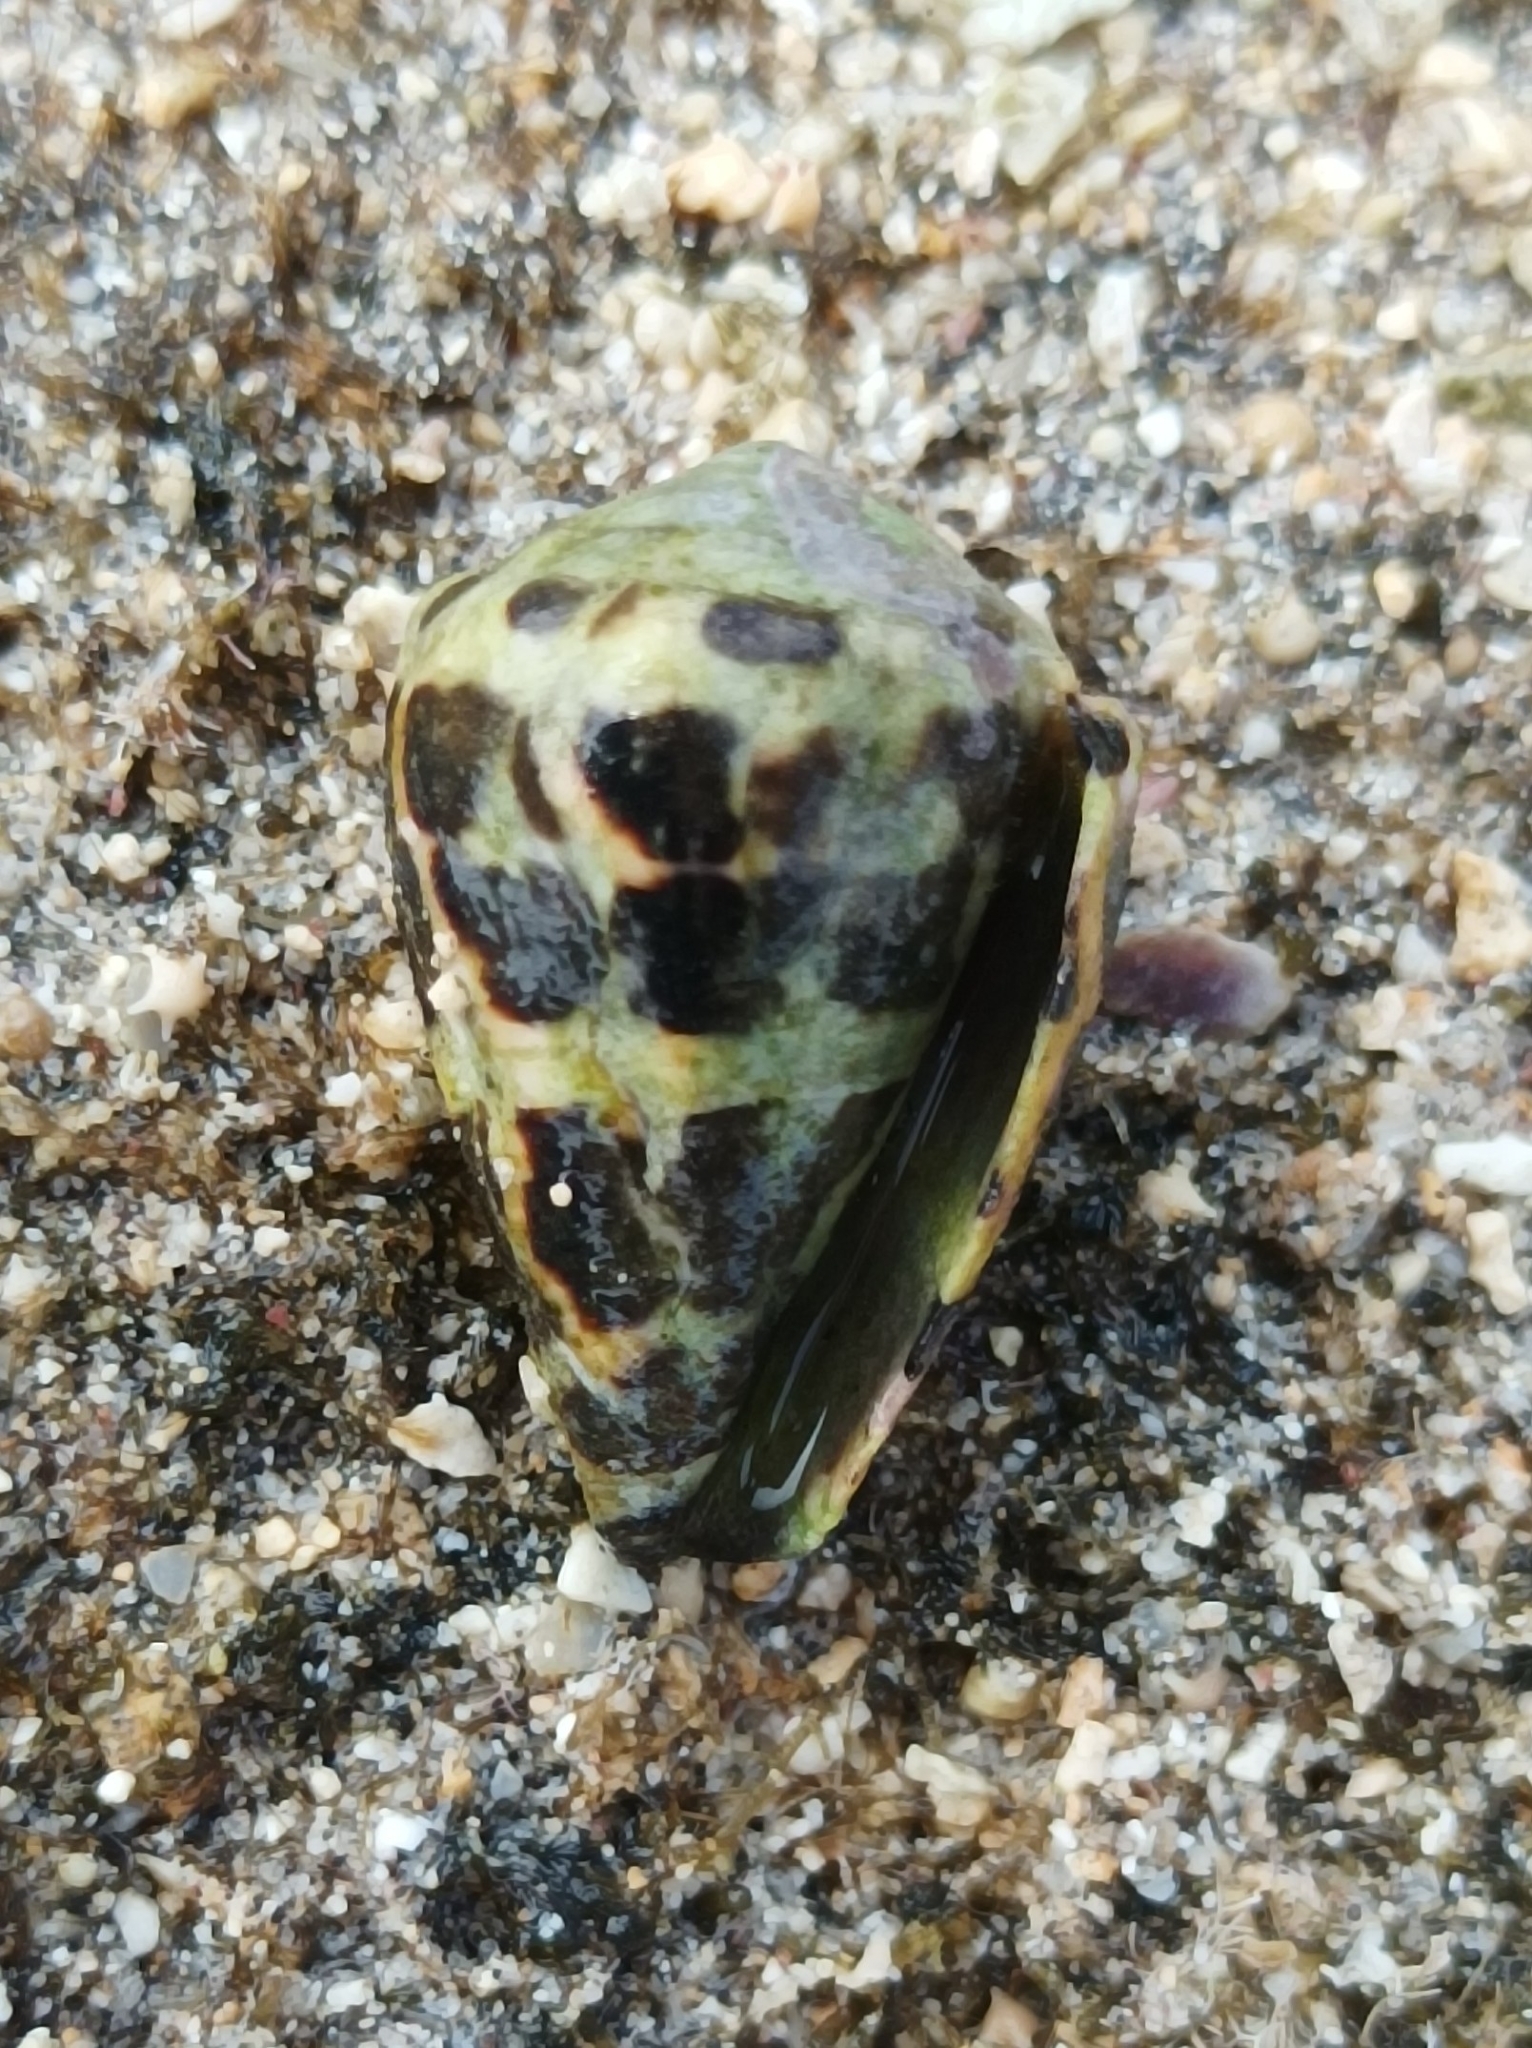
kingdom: Animalia
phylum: Mollusca
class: Gastropoda
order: Neogastropoda
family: Conidae
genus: Conus
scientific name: Conus ebraeus
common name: Hebrew cone
